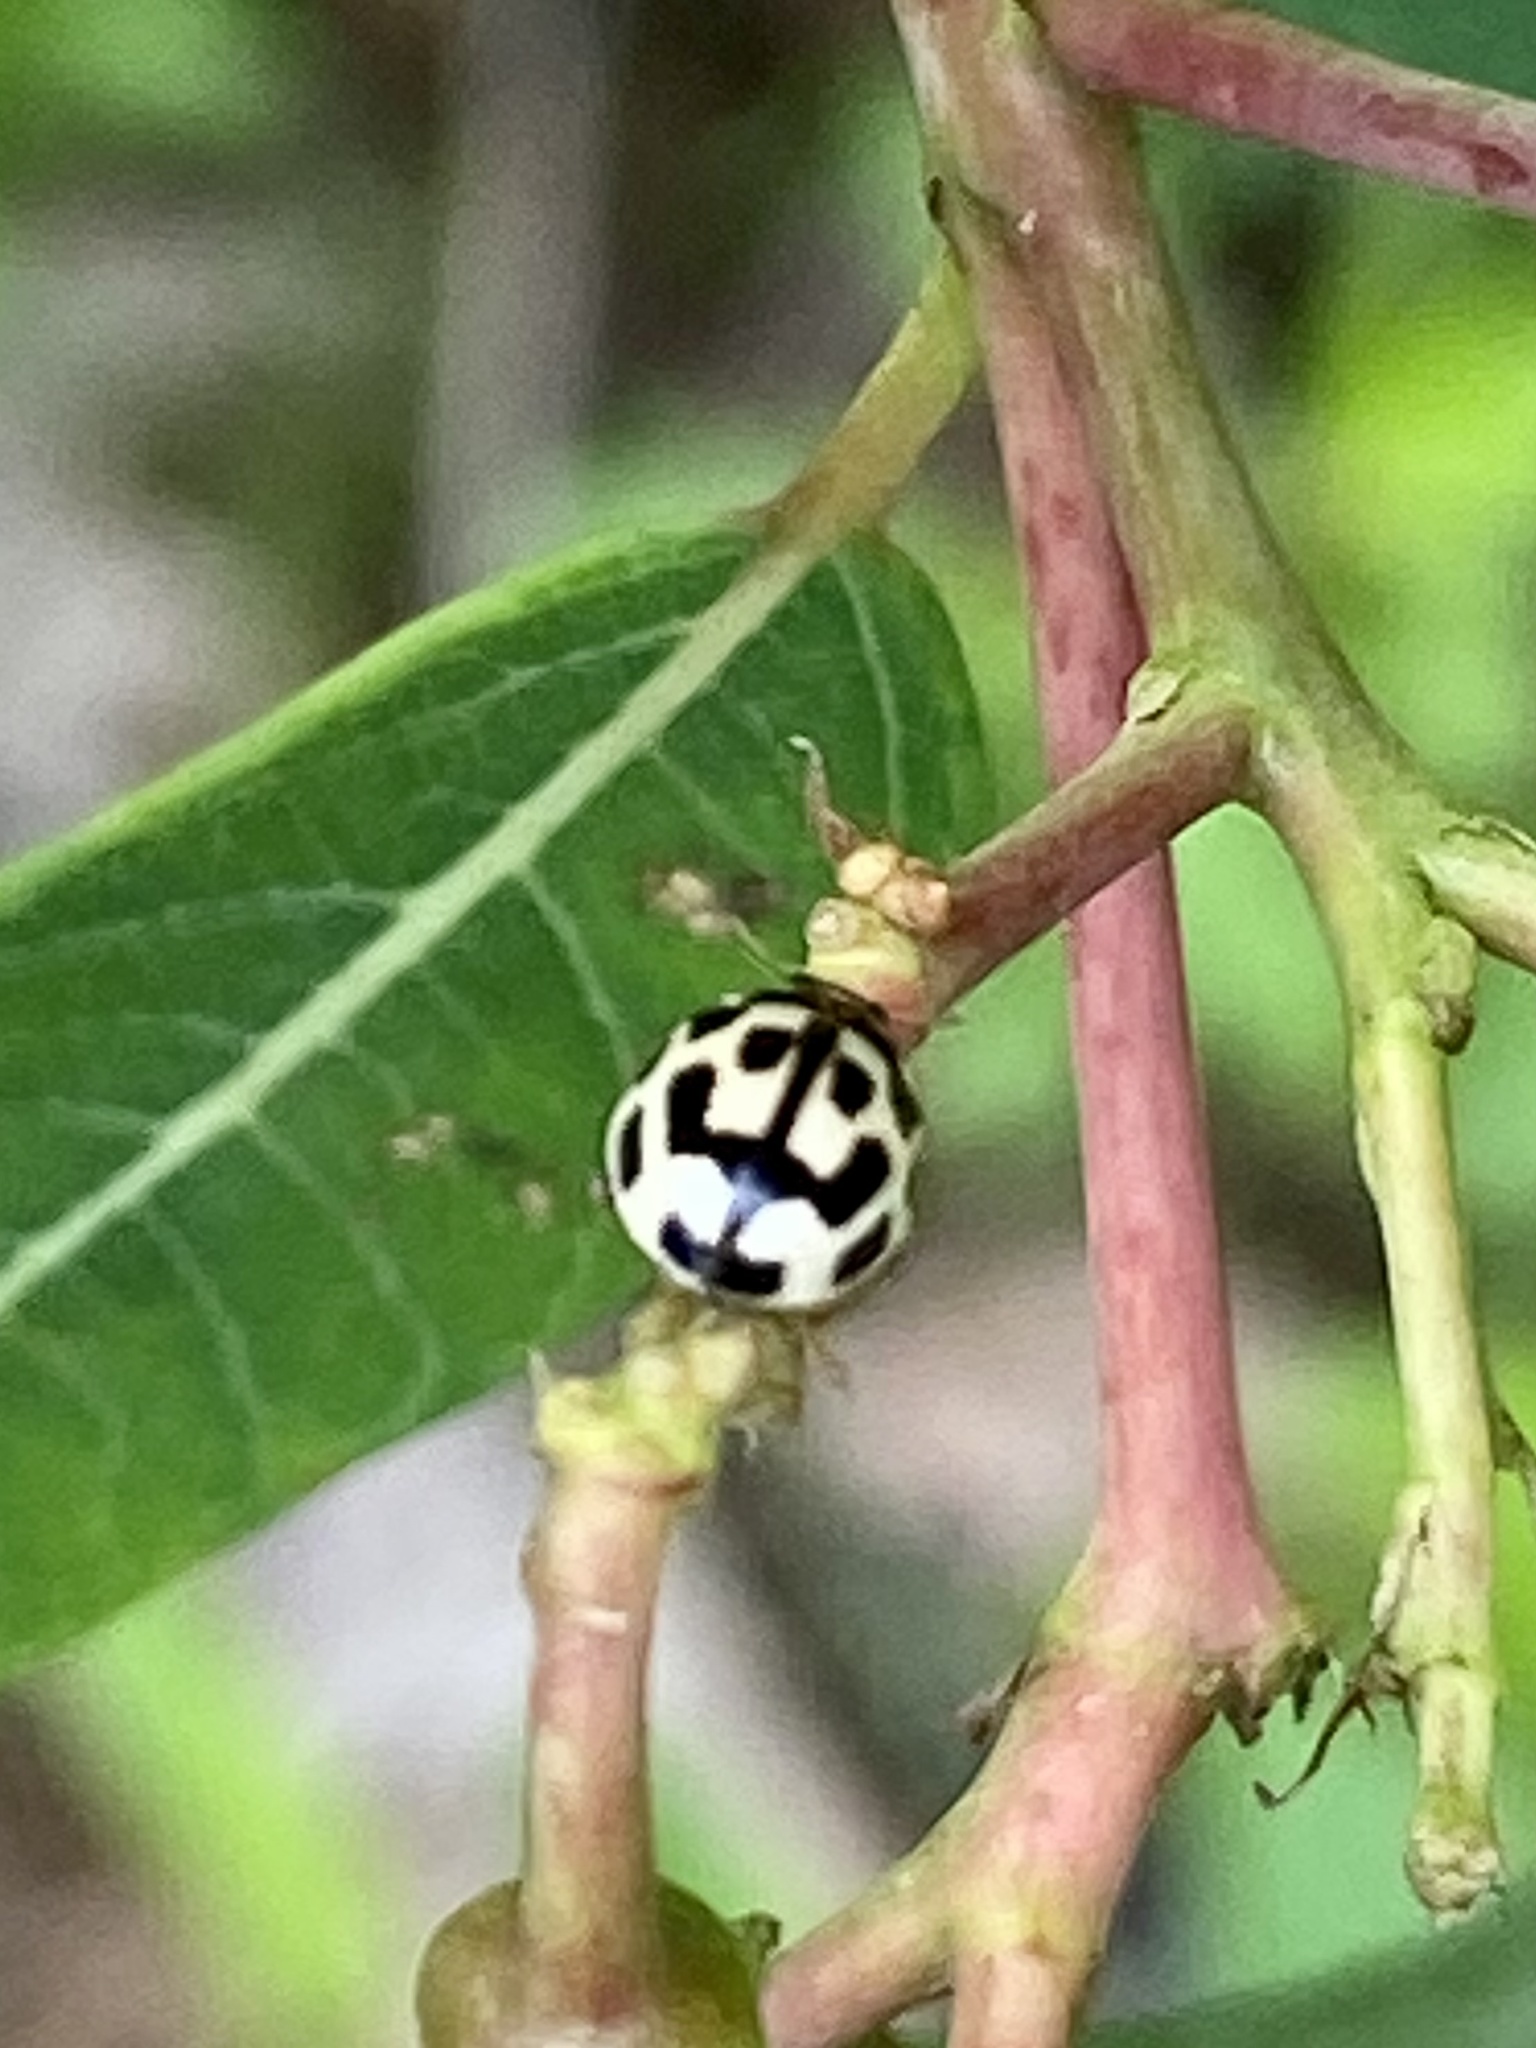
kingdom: Animalia
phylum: Arthropoda
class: Insecta
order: Coleoptera
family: Coccinellidae
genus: Propylaea
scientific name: Propylaea quatuordecimpunctata
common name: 14-spotted ladybird beetle
